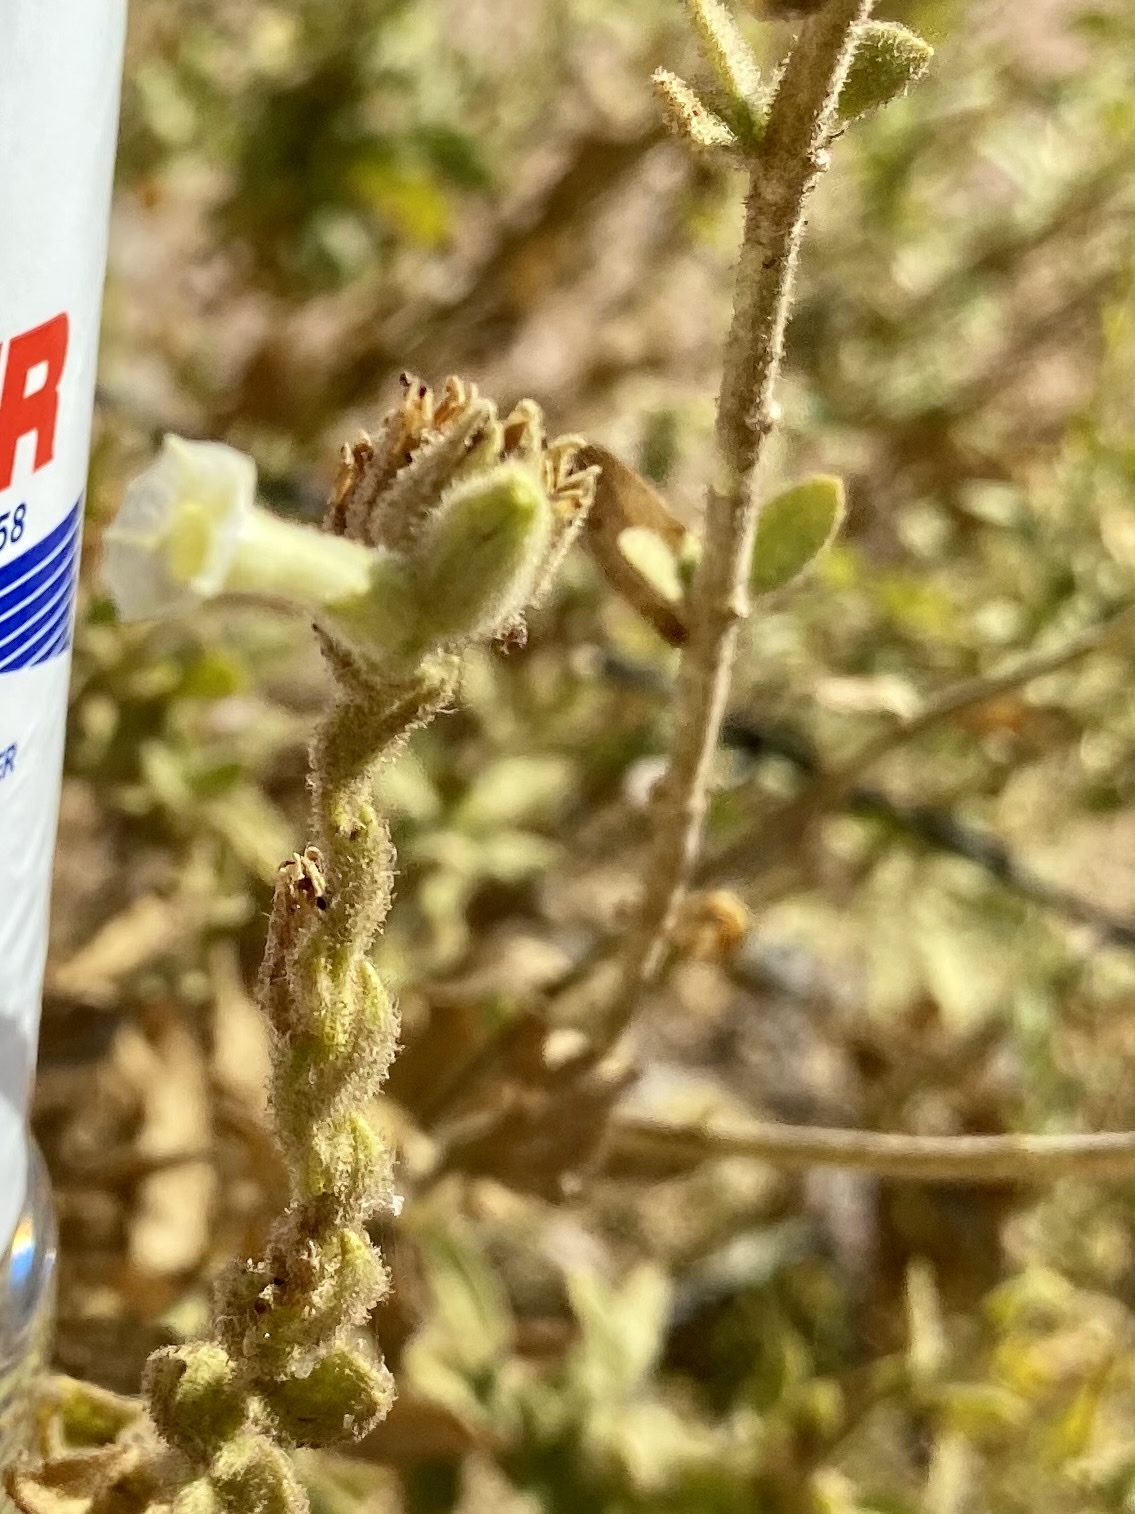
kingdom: Plantae
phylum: Tracheophyta
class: Magnoliopsida
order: Solanales
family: Solanaceae
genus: Nicotiana
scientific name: Nicotiana obtusifolia
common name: Desert tobacco
